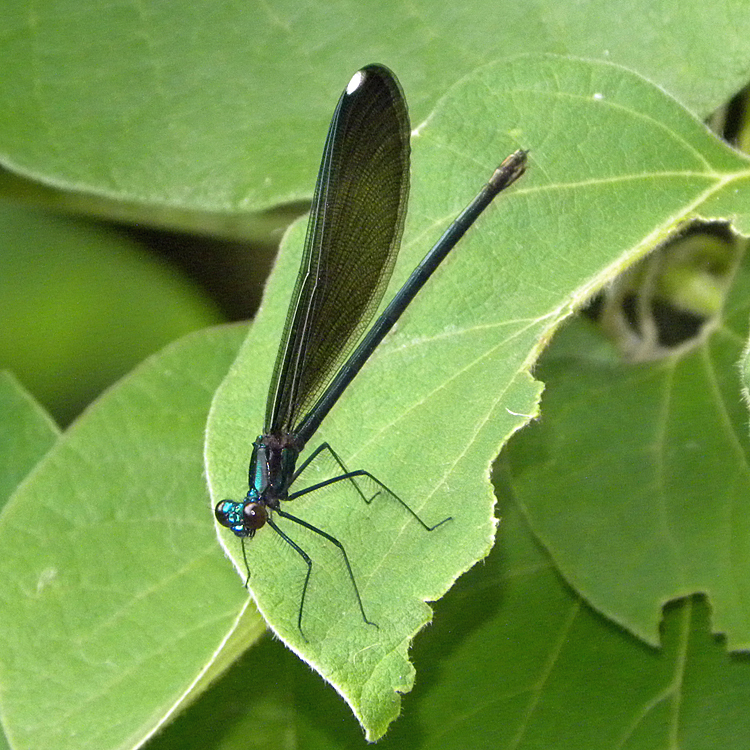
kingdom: Animalia
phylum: Arthropoda
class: Insecta
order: Odonata
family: Calopterygidae
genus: Calopteryx
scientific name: Calopteryx maculata
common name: Ebony jewelwing
